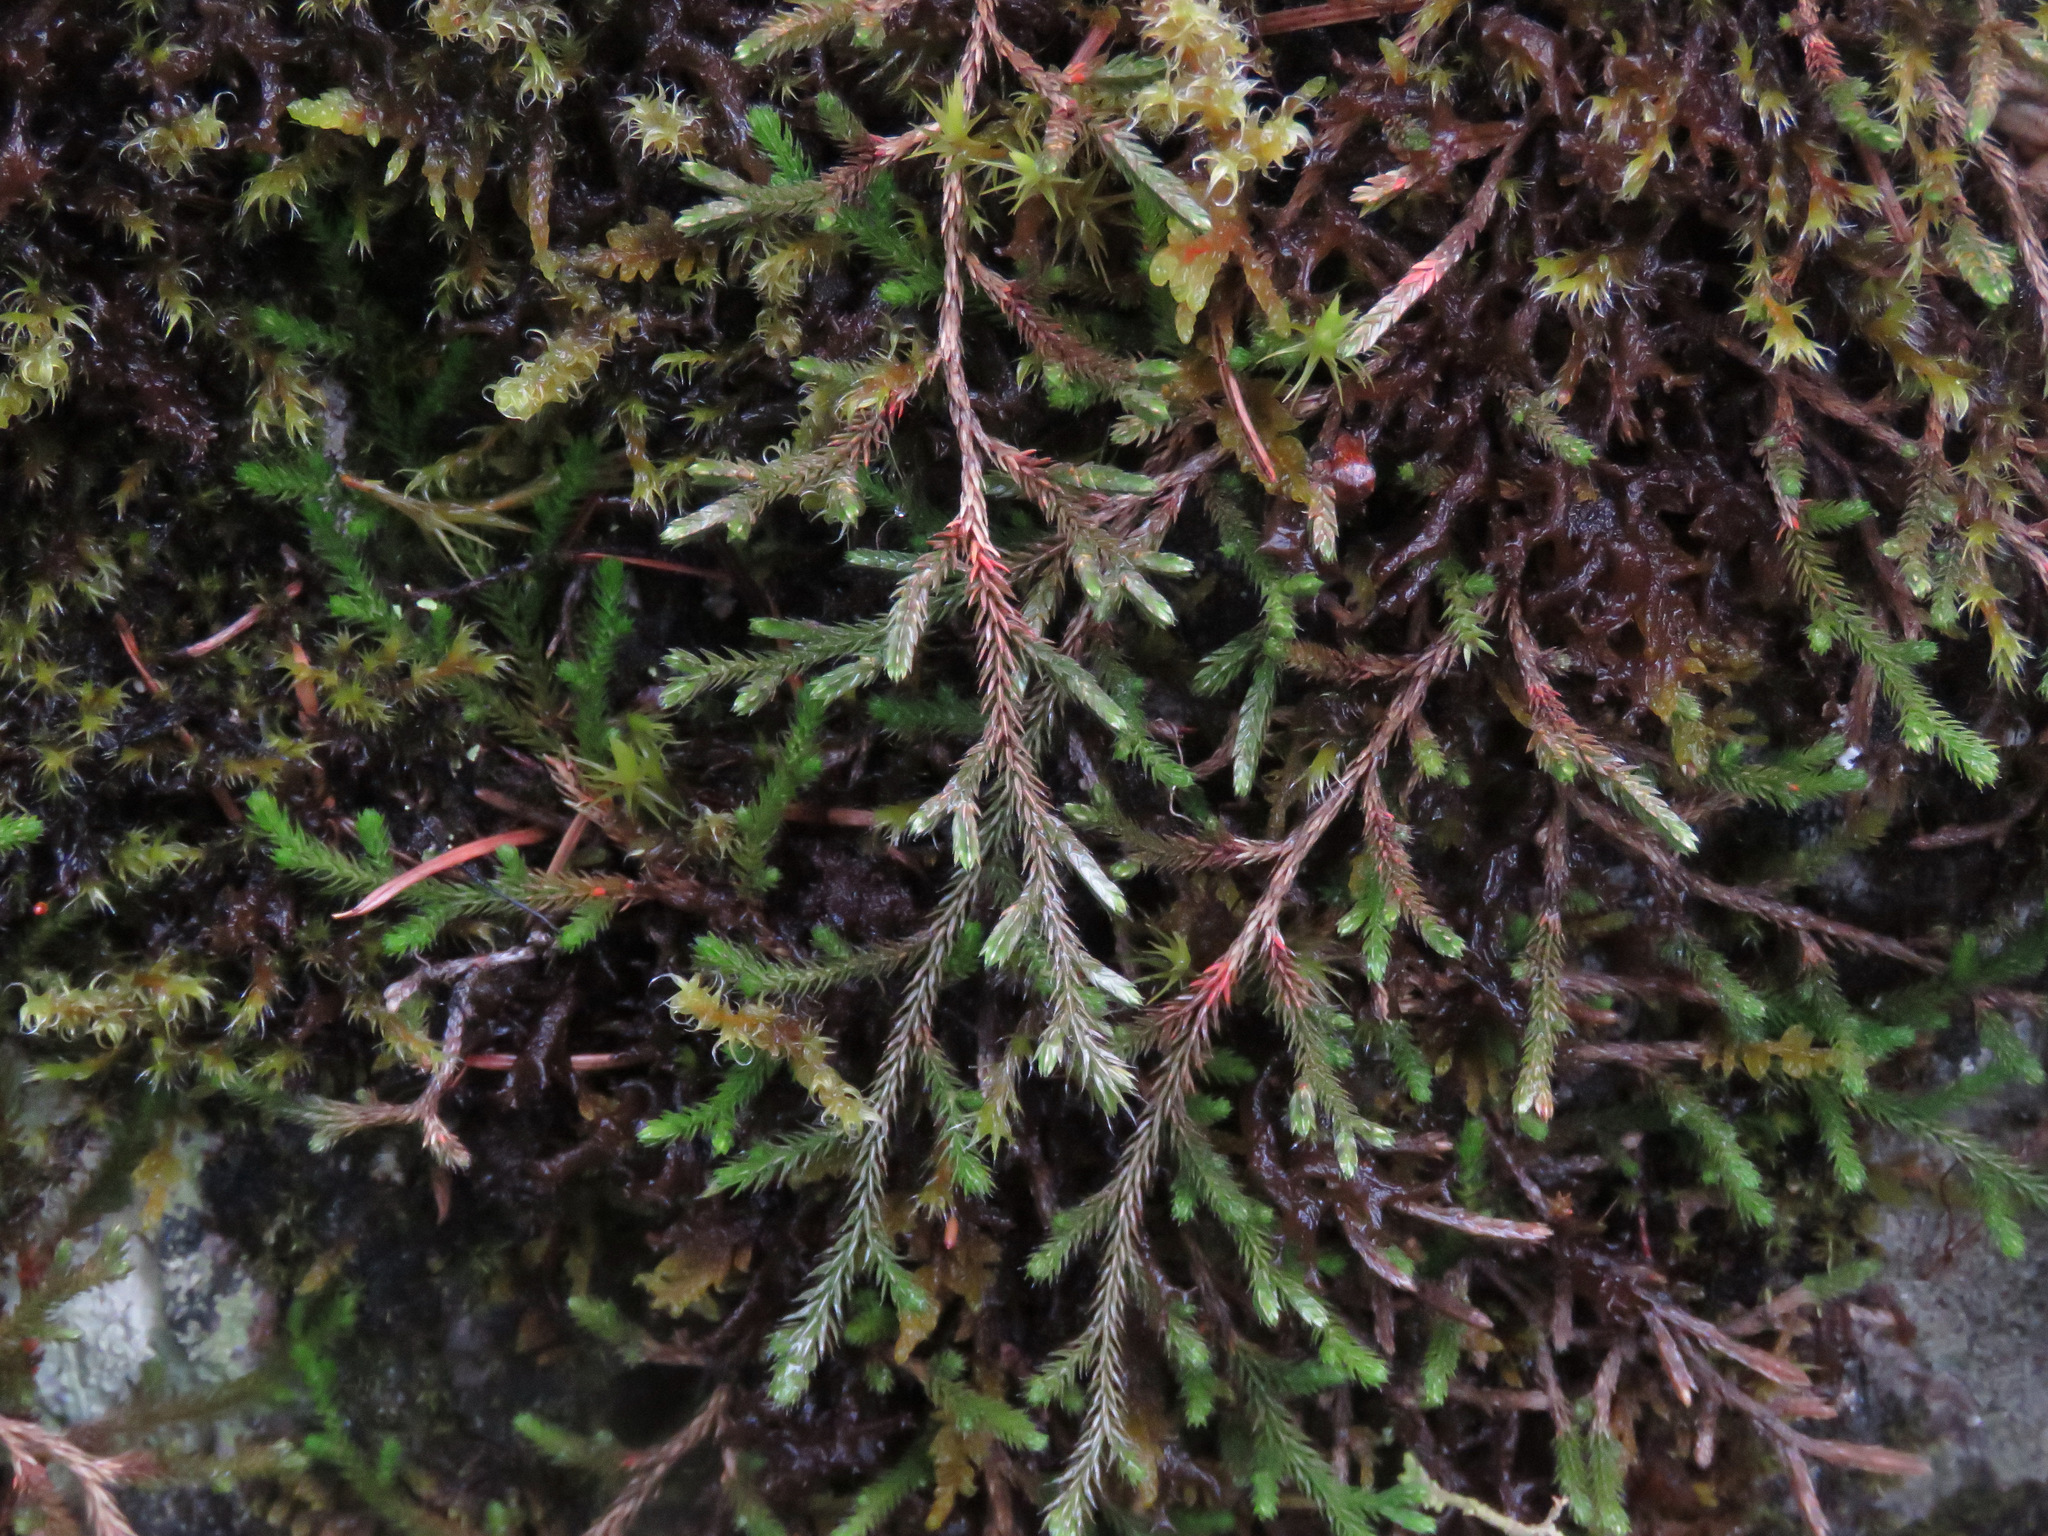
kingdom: Plantae
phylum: Tracheophyta
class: Lycopodiopsida
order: Selaginellales
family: Selaginellaceae
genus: Selaginella
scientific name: Selaginella wallacei
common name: Wallace's selaginella
